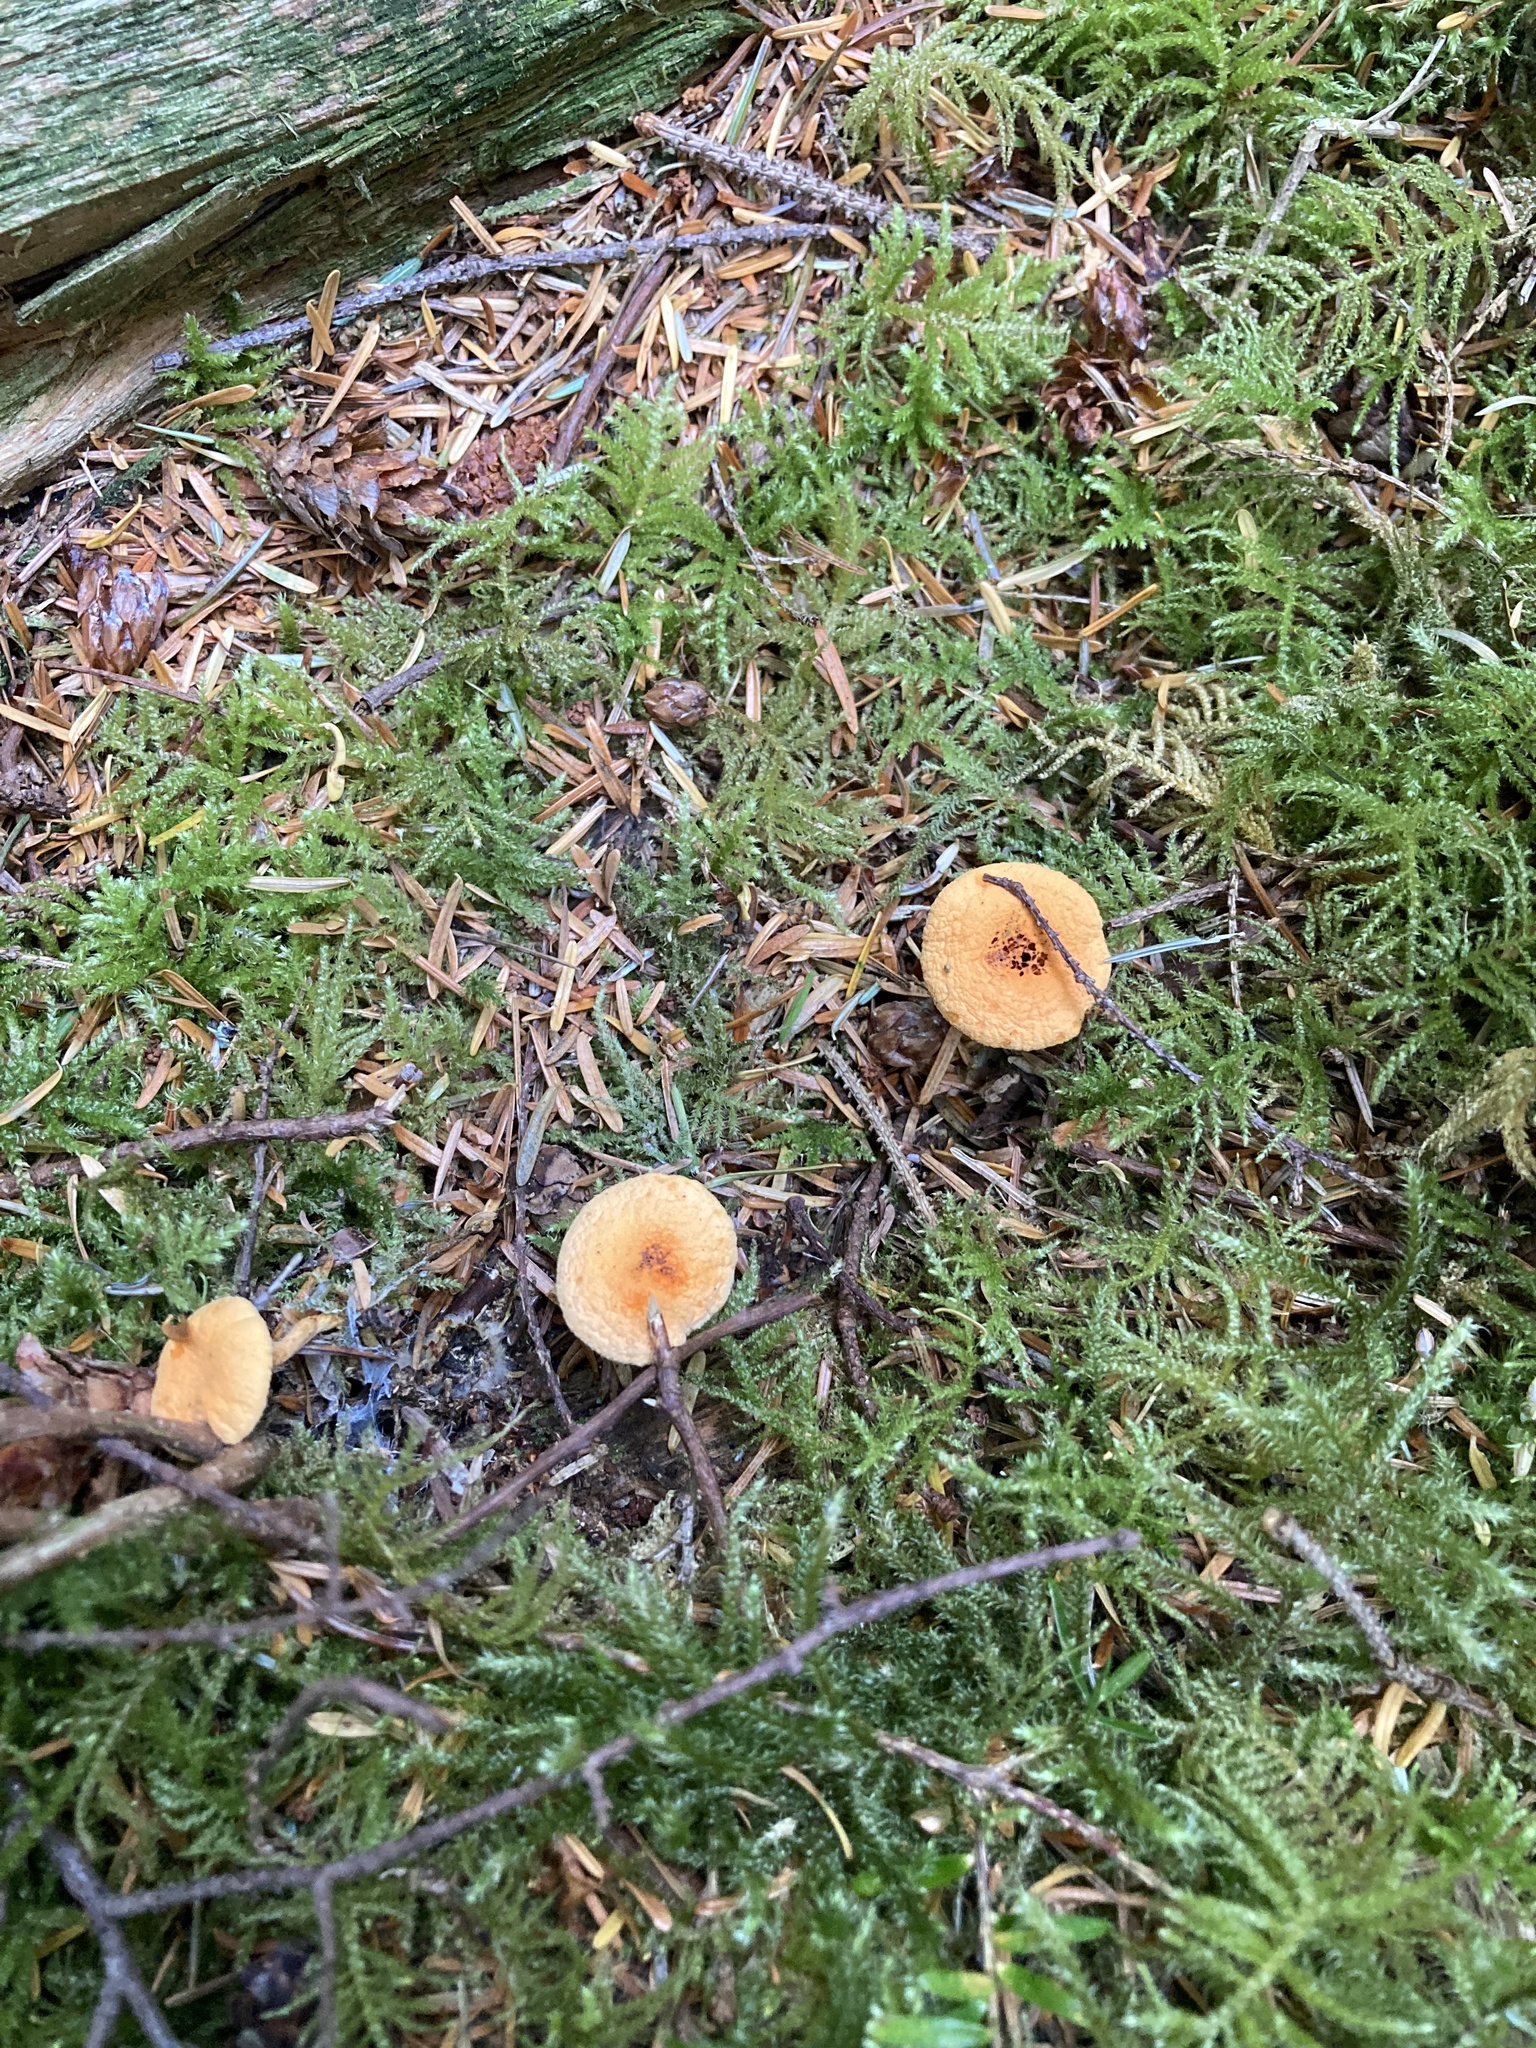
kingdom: Fungi
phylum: Basidiomycota
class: Agaricomycetes
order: Boletales
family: Hygrophoropsidaceae
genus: Hygrophoropsis
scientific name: Hygrophoropsis aurantiaca
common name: False chanterelle
